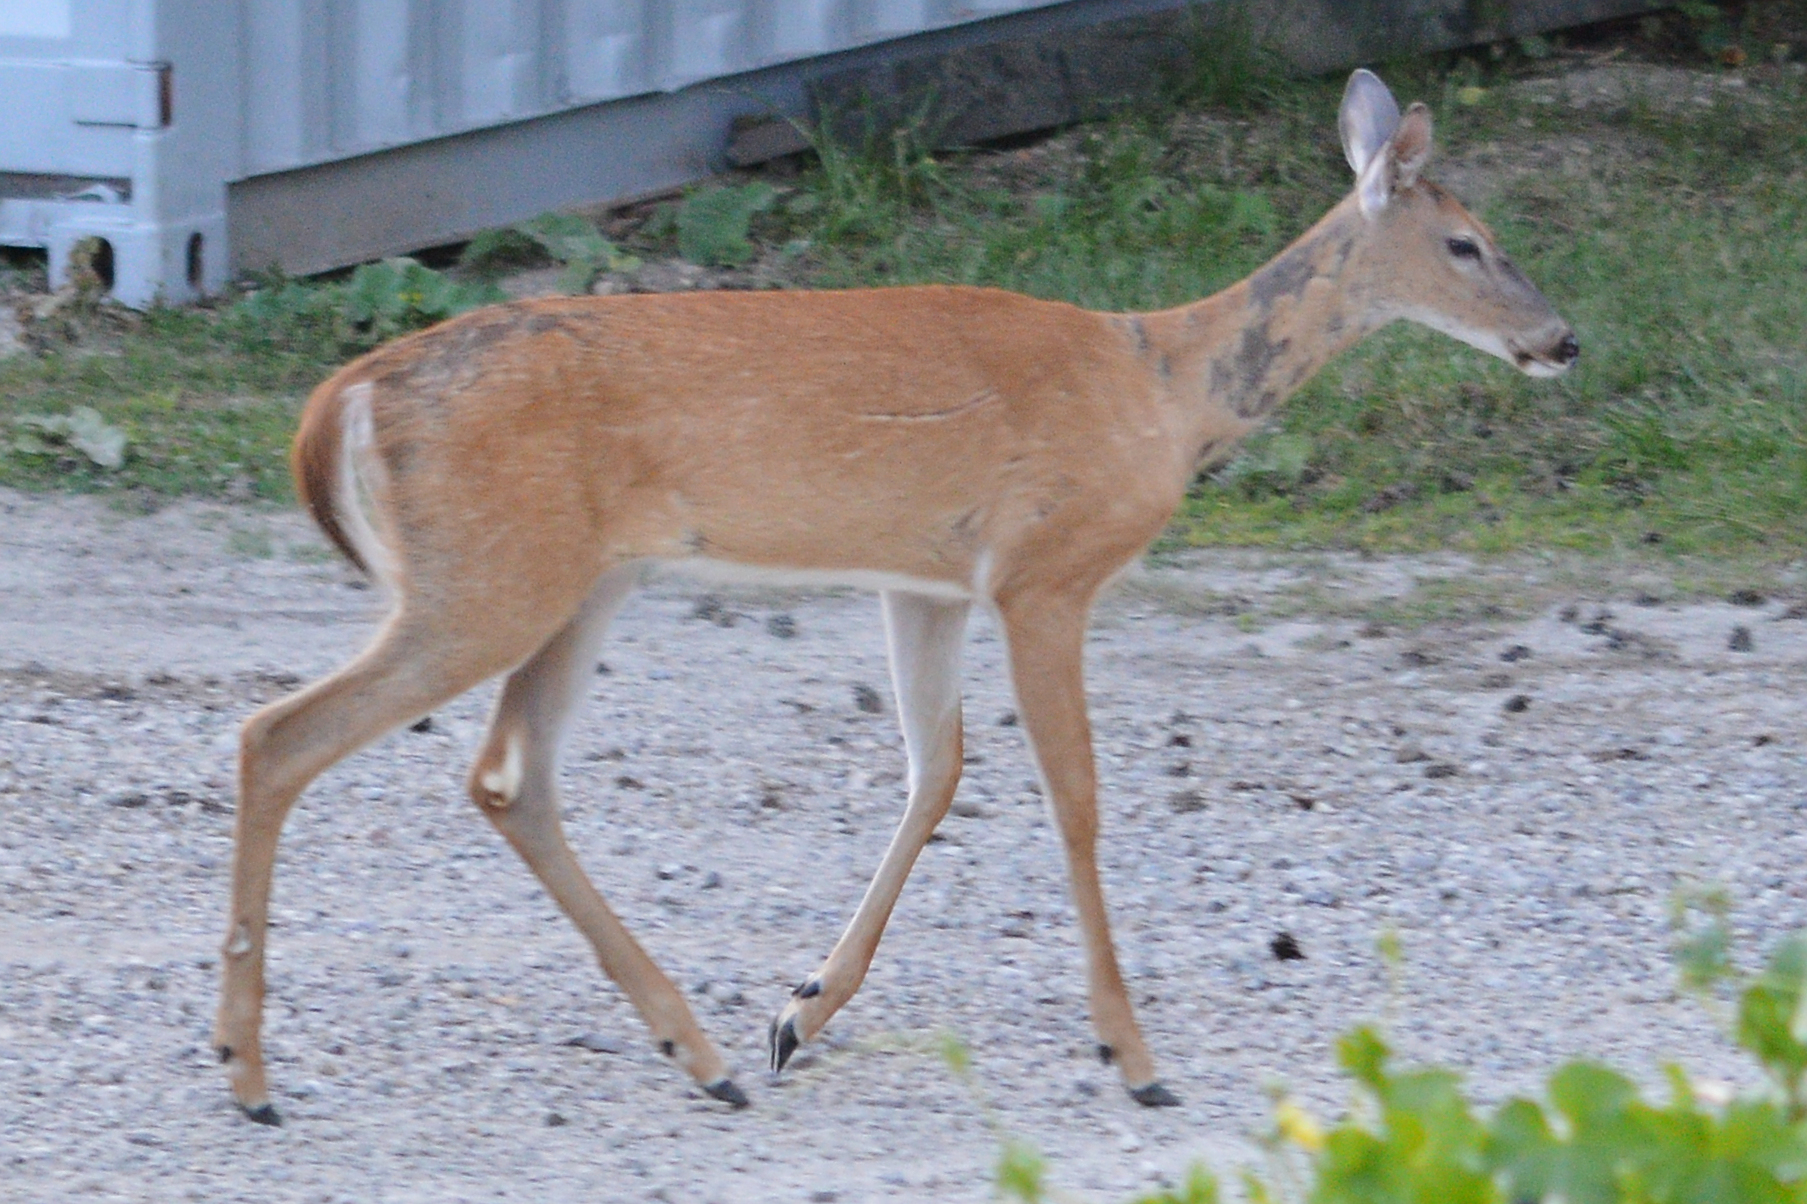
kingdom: Animalia
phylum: Chordata
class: Mammalia
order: Artiodactyla
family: Cervidae
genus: Odocoileus
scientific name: Odocoileus virginianus
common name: White-tailed deer
